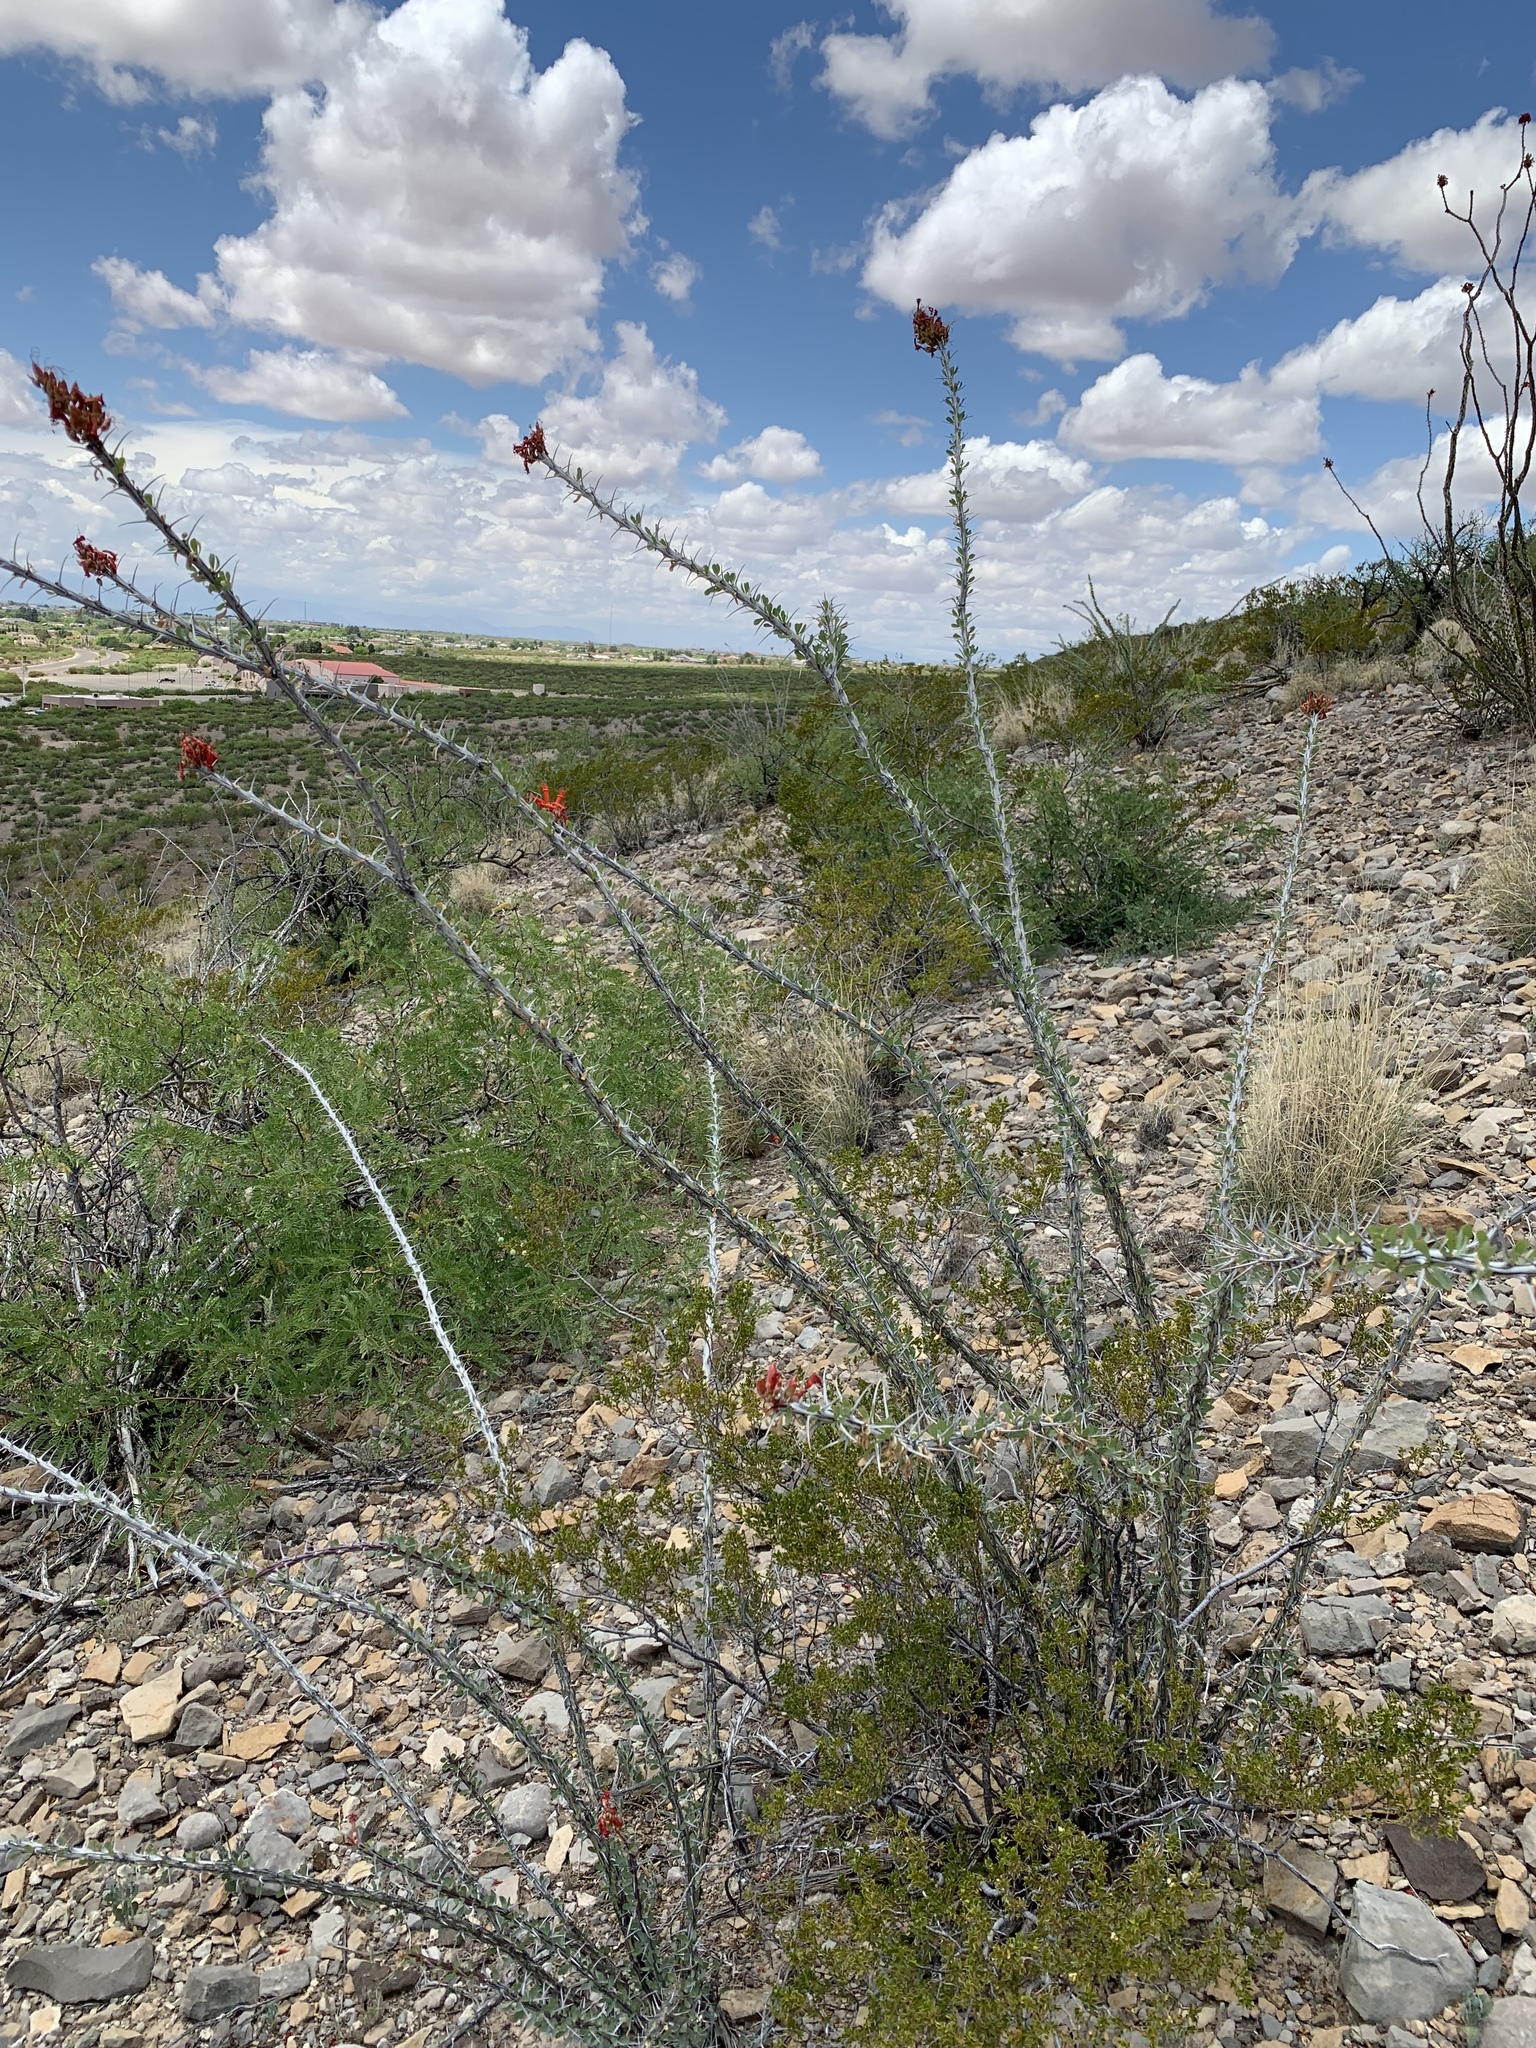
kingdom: Plantae
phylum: Tracheophyta
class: Magnoliopsida
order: Ericales
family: Fouquieriaceae
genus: Fouquieria
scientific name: Fouquieria splendens
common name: Vine-cactus
